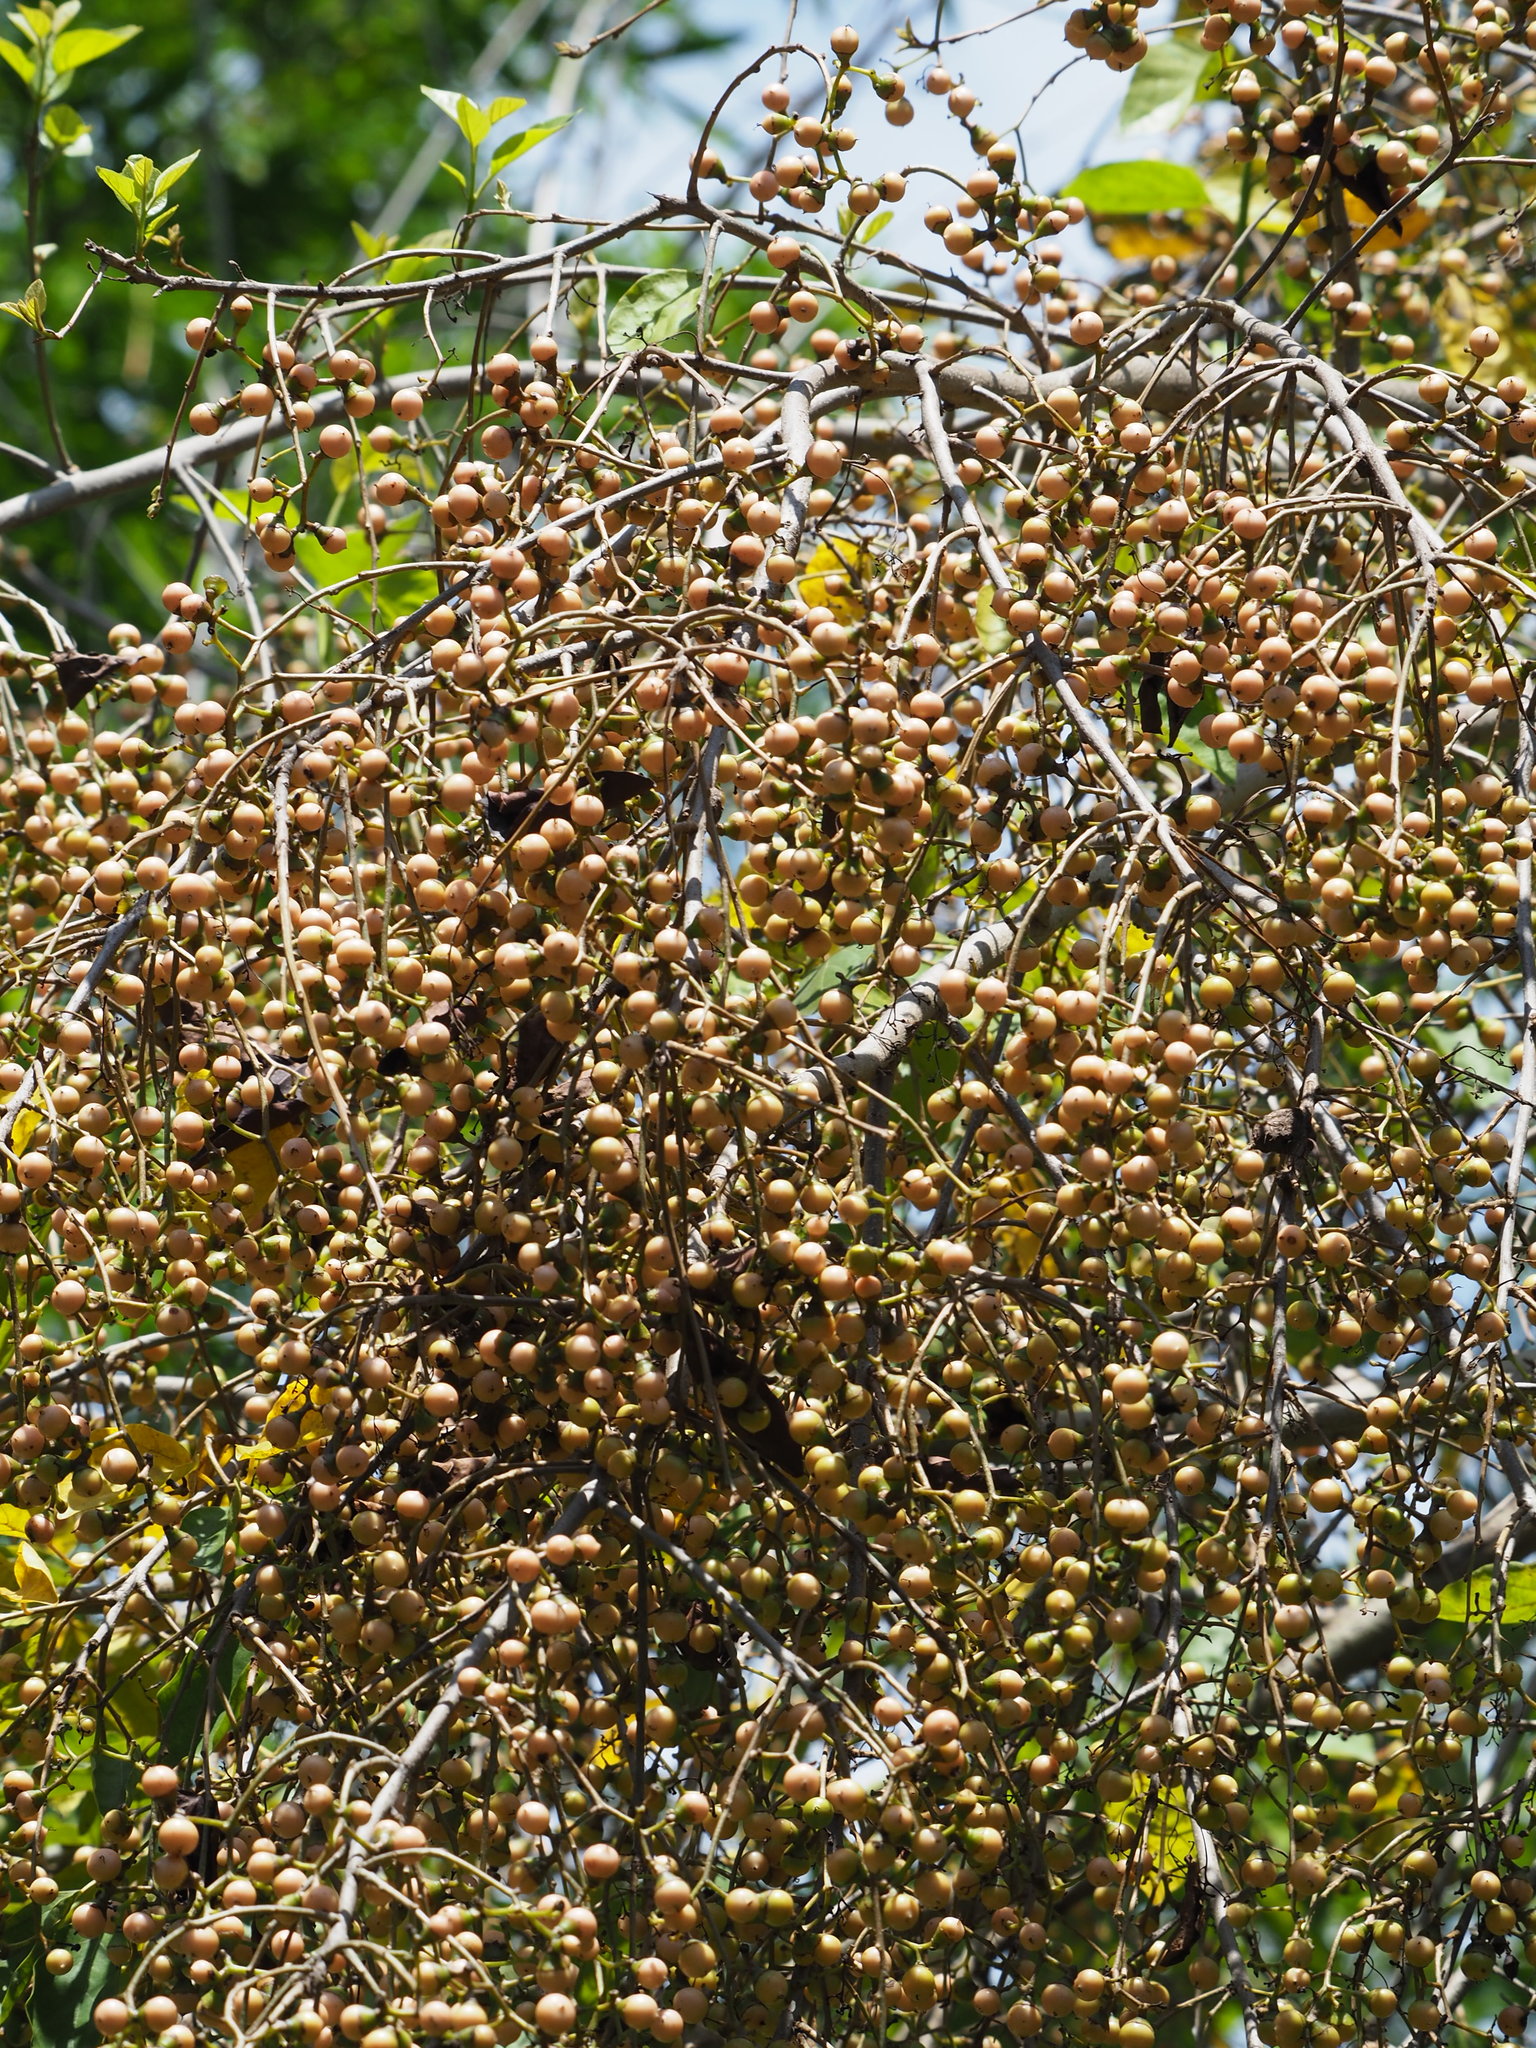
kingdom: Plantae
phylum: Tracheophyta
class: Magnoliopsida
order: Boraginales
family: Cordiaceae
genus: Cordia
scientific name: Cordia dichotoma
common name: Fragrant manjack
